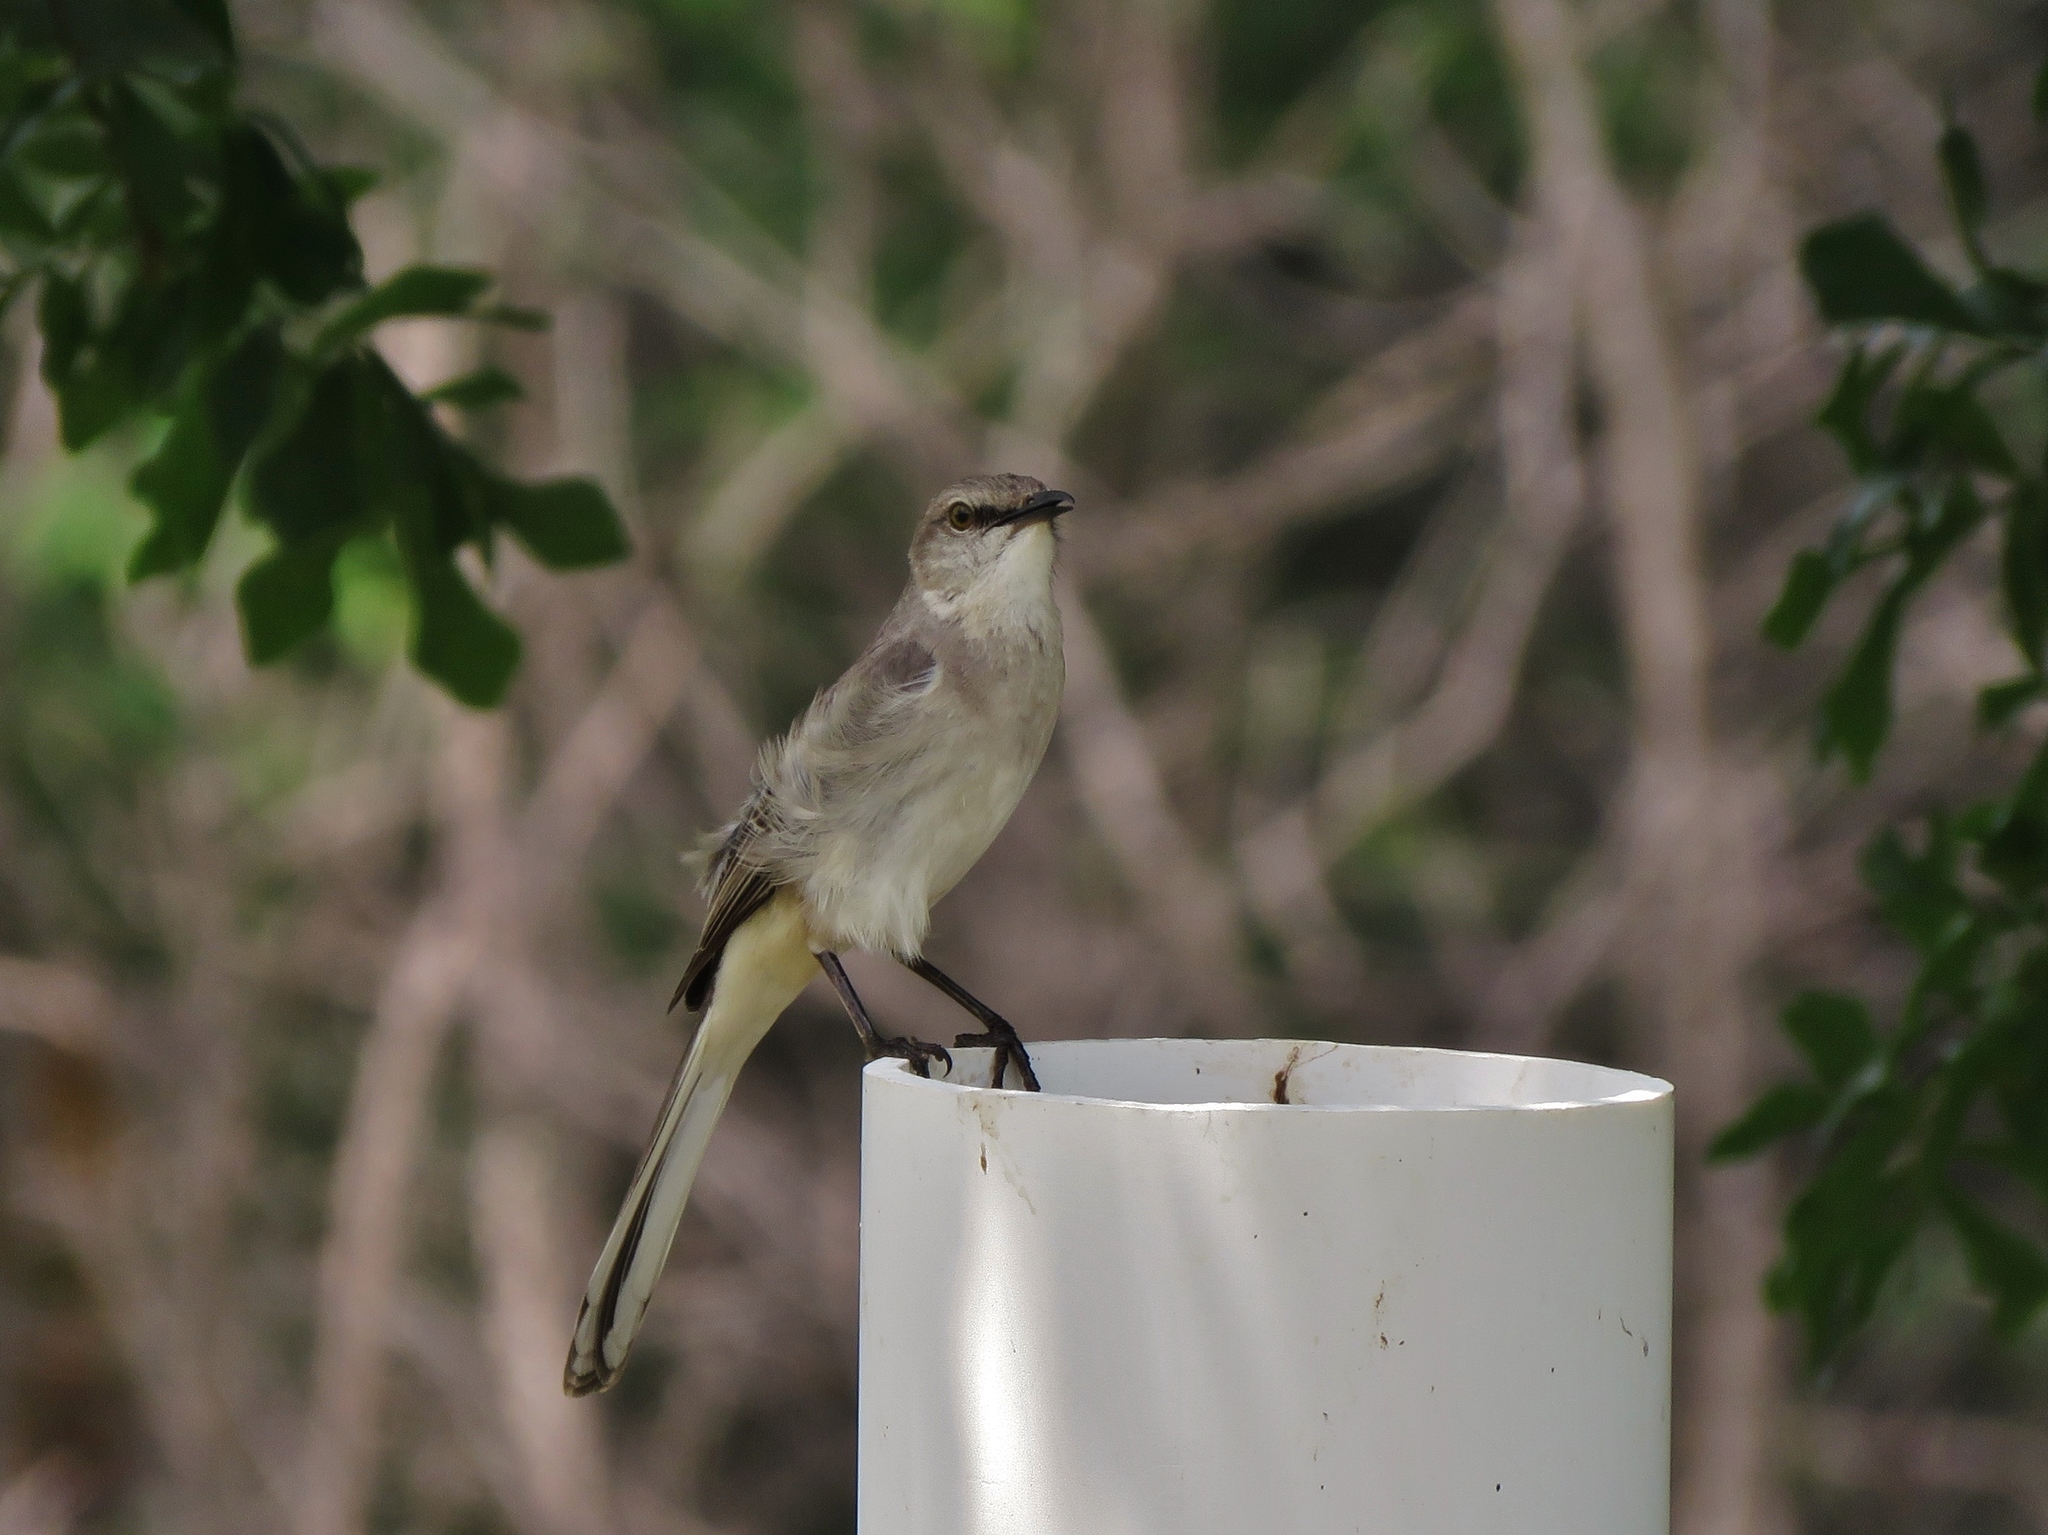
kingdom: Animalia
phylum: Chordata
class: Aves
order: Passeriformes
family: Mimidae
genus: Mimus
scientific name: Mimus polyglottos
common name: Northern mockingbird
